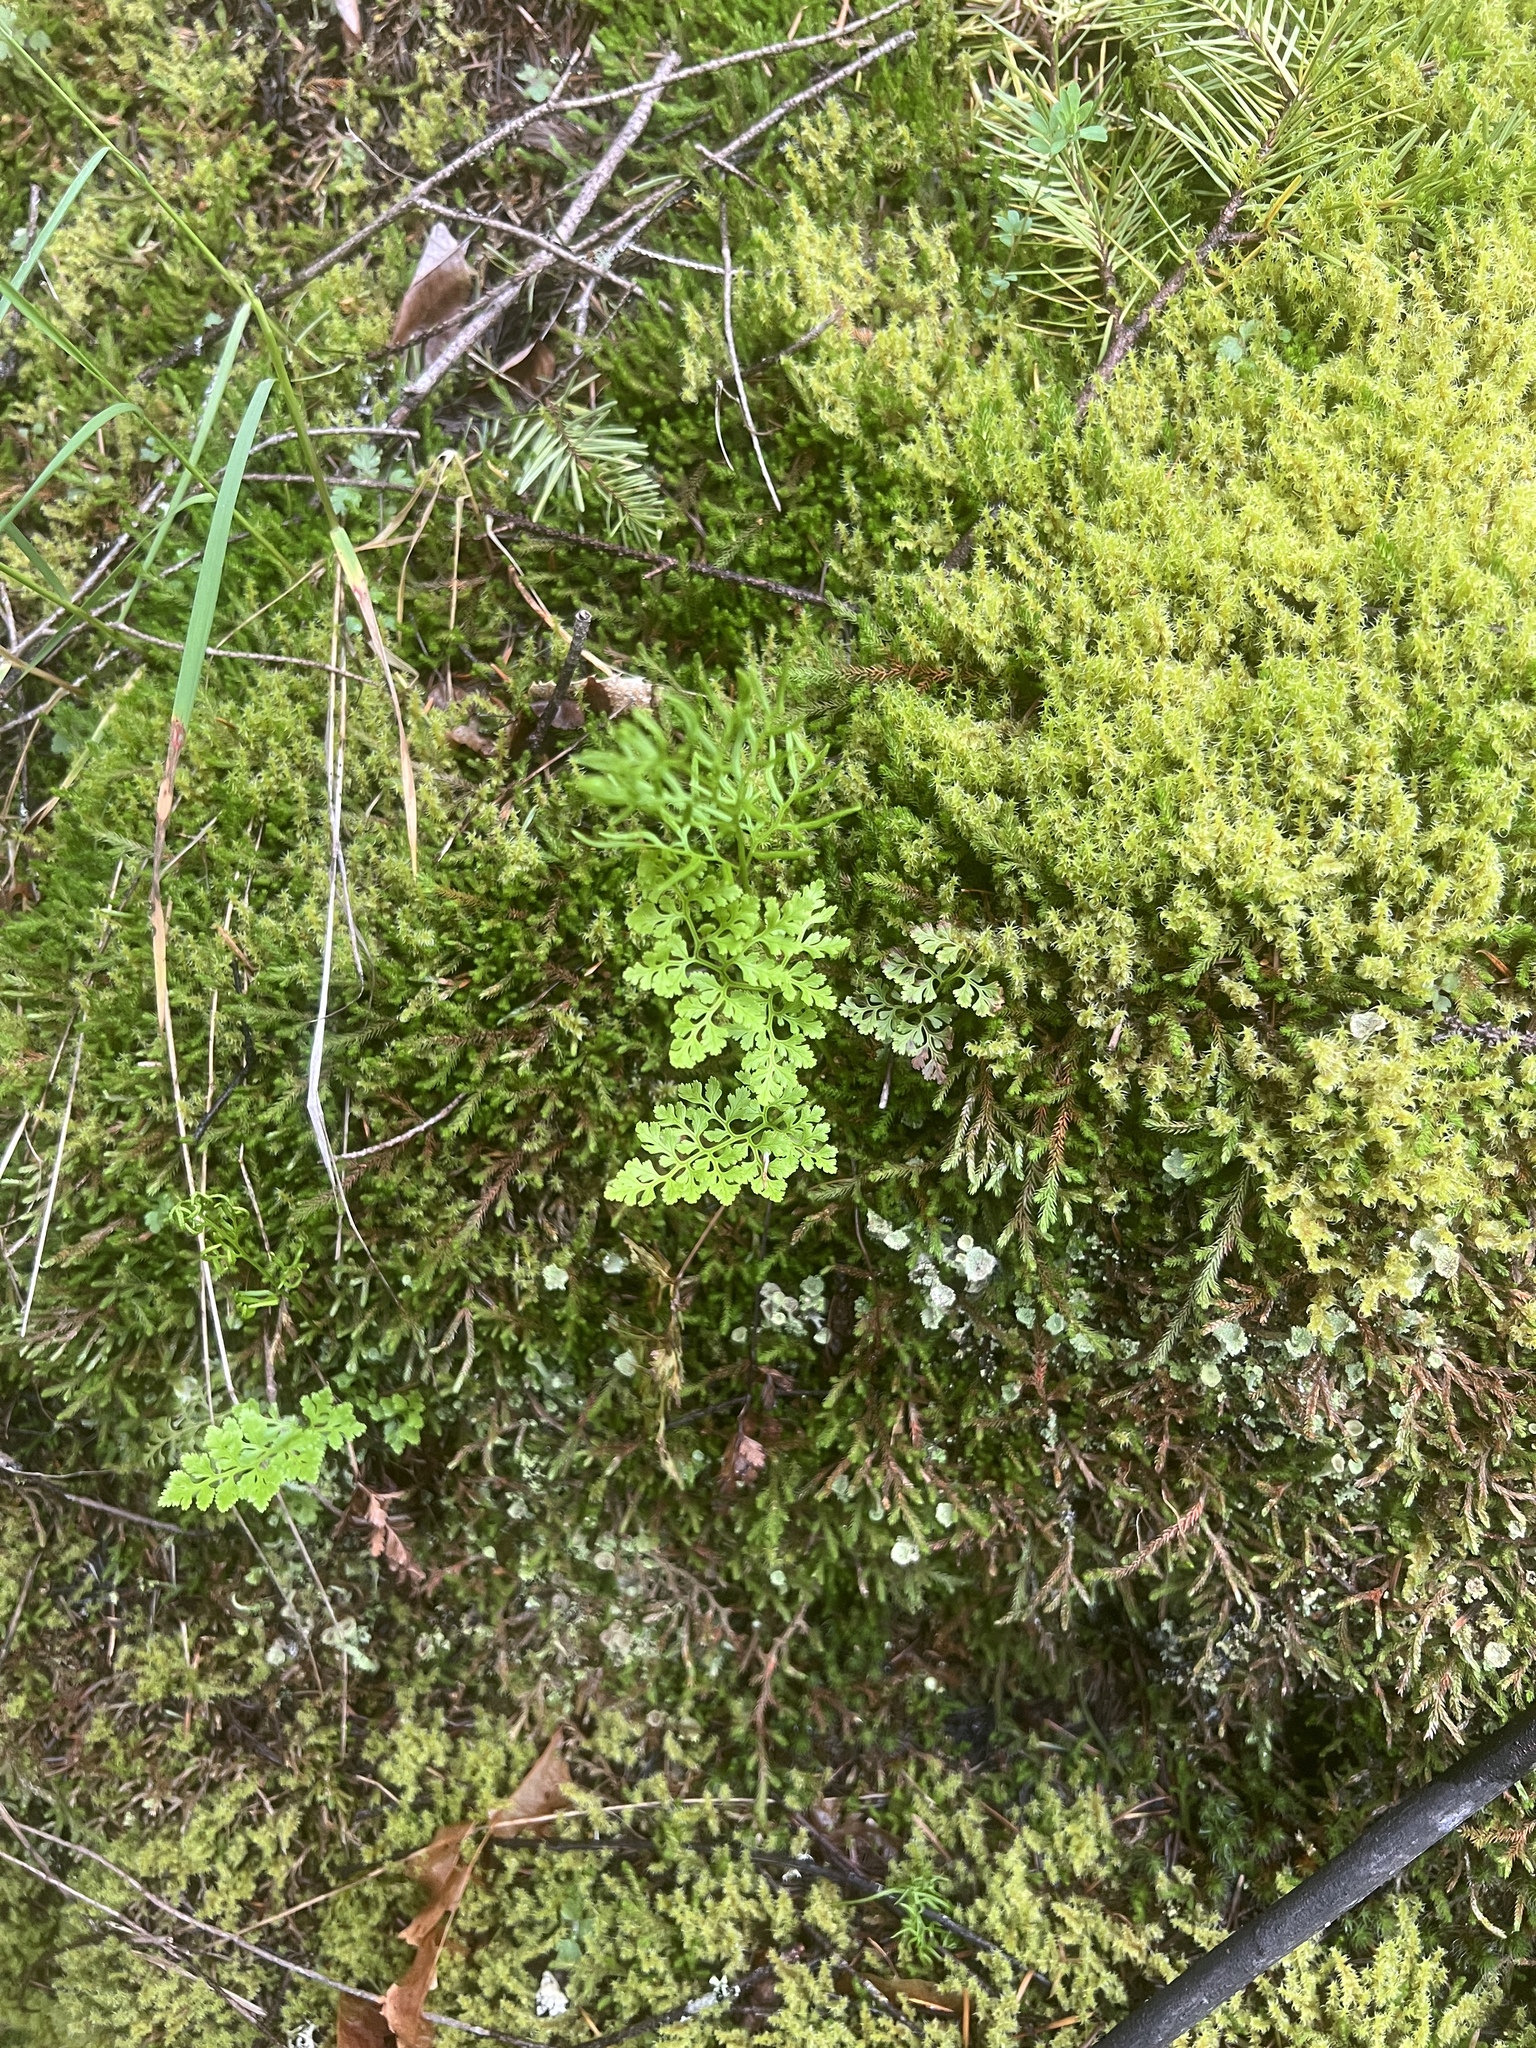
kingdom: Plantae
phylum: Tracheophyta
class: Polypodiopsida
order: Polypodiales
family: Pteridaceae
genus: Cryptogramma
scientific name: Cryptogramma acrostichoides
